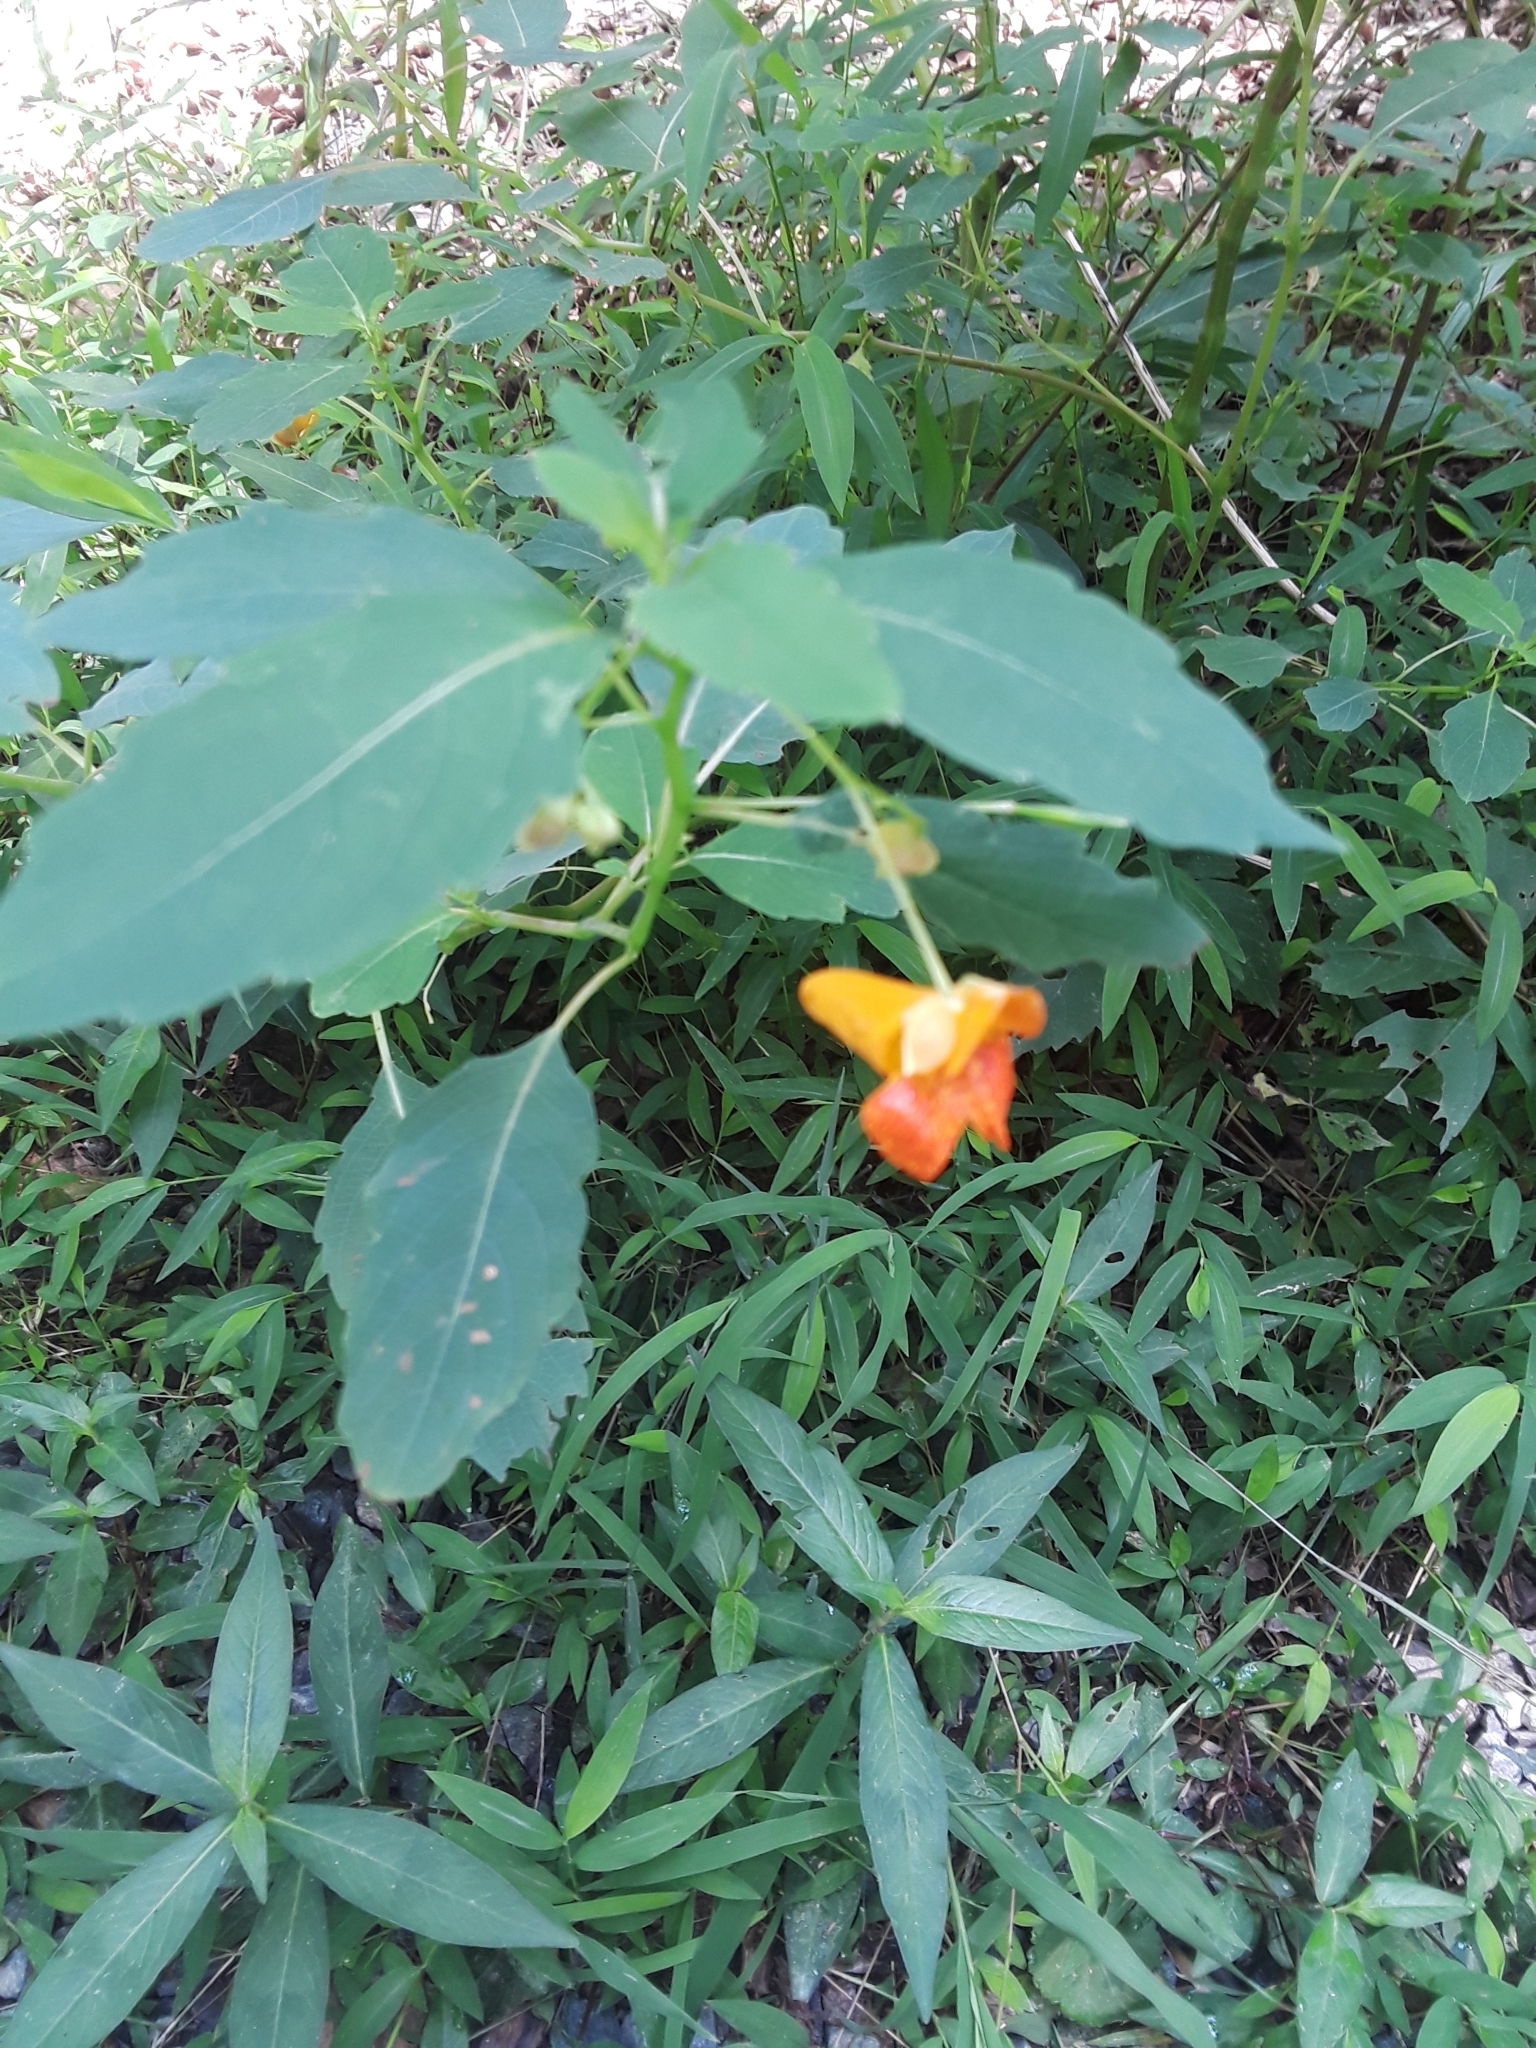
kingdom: Plantae
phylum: Tracheophyta
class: Magnoliopsida
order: Ericales
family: Balsaminaceae
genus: Impatiens
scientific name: Impatiens capensis
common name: Orange balsam
